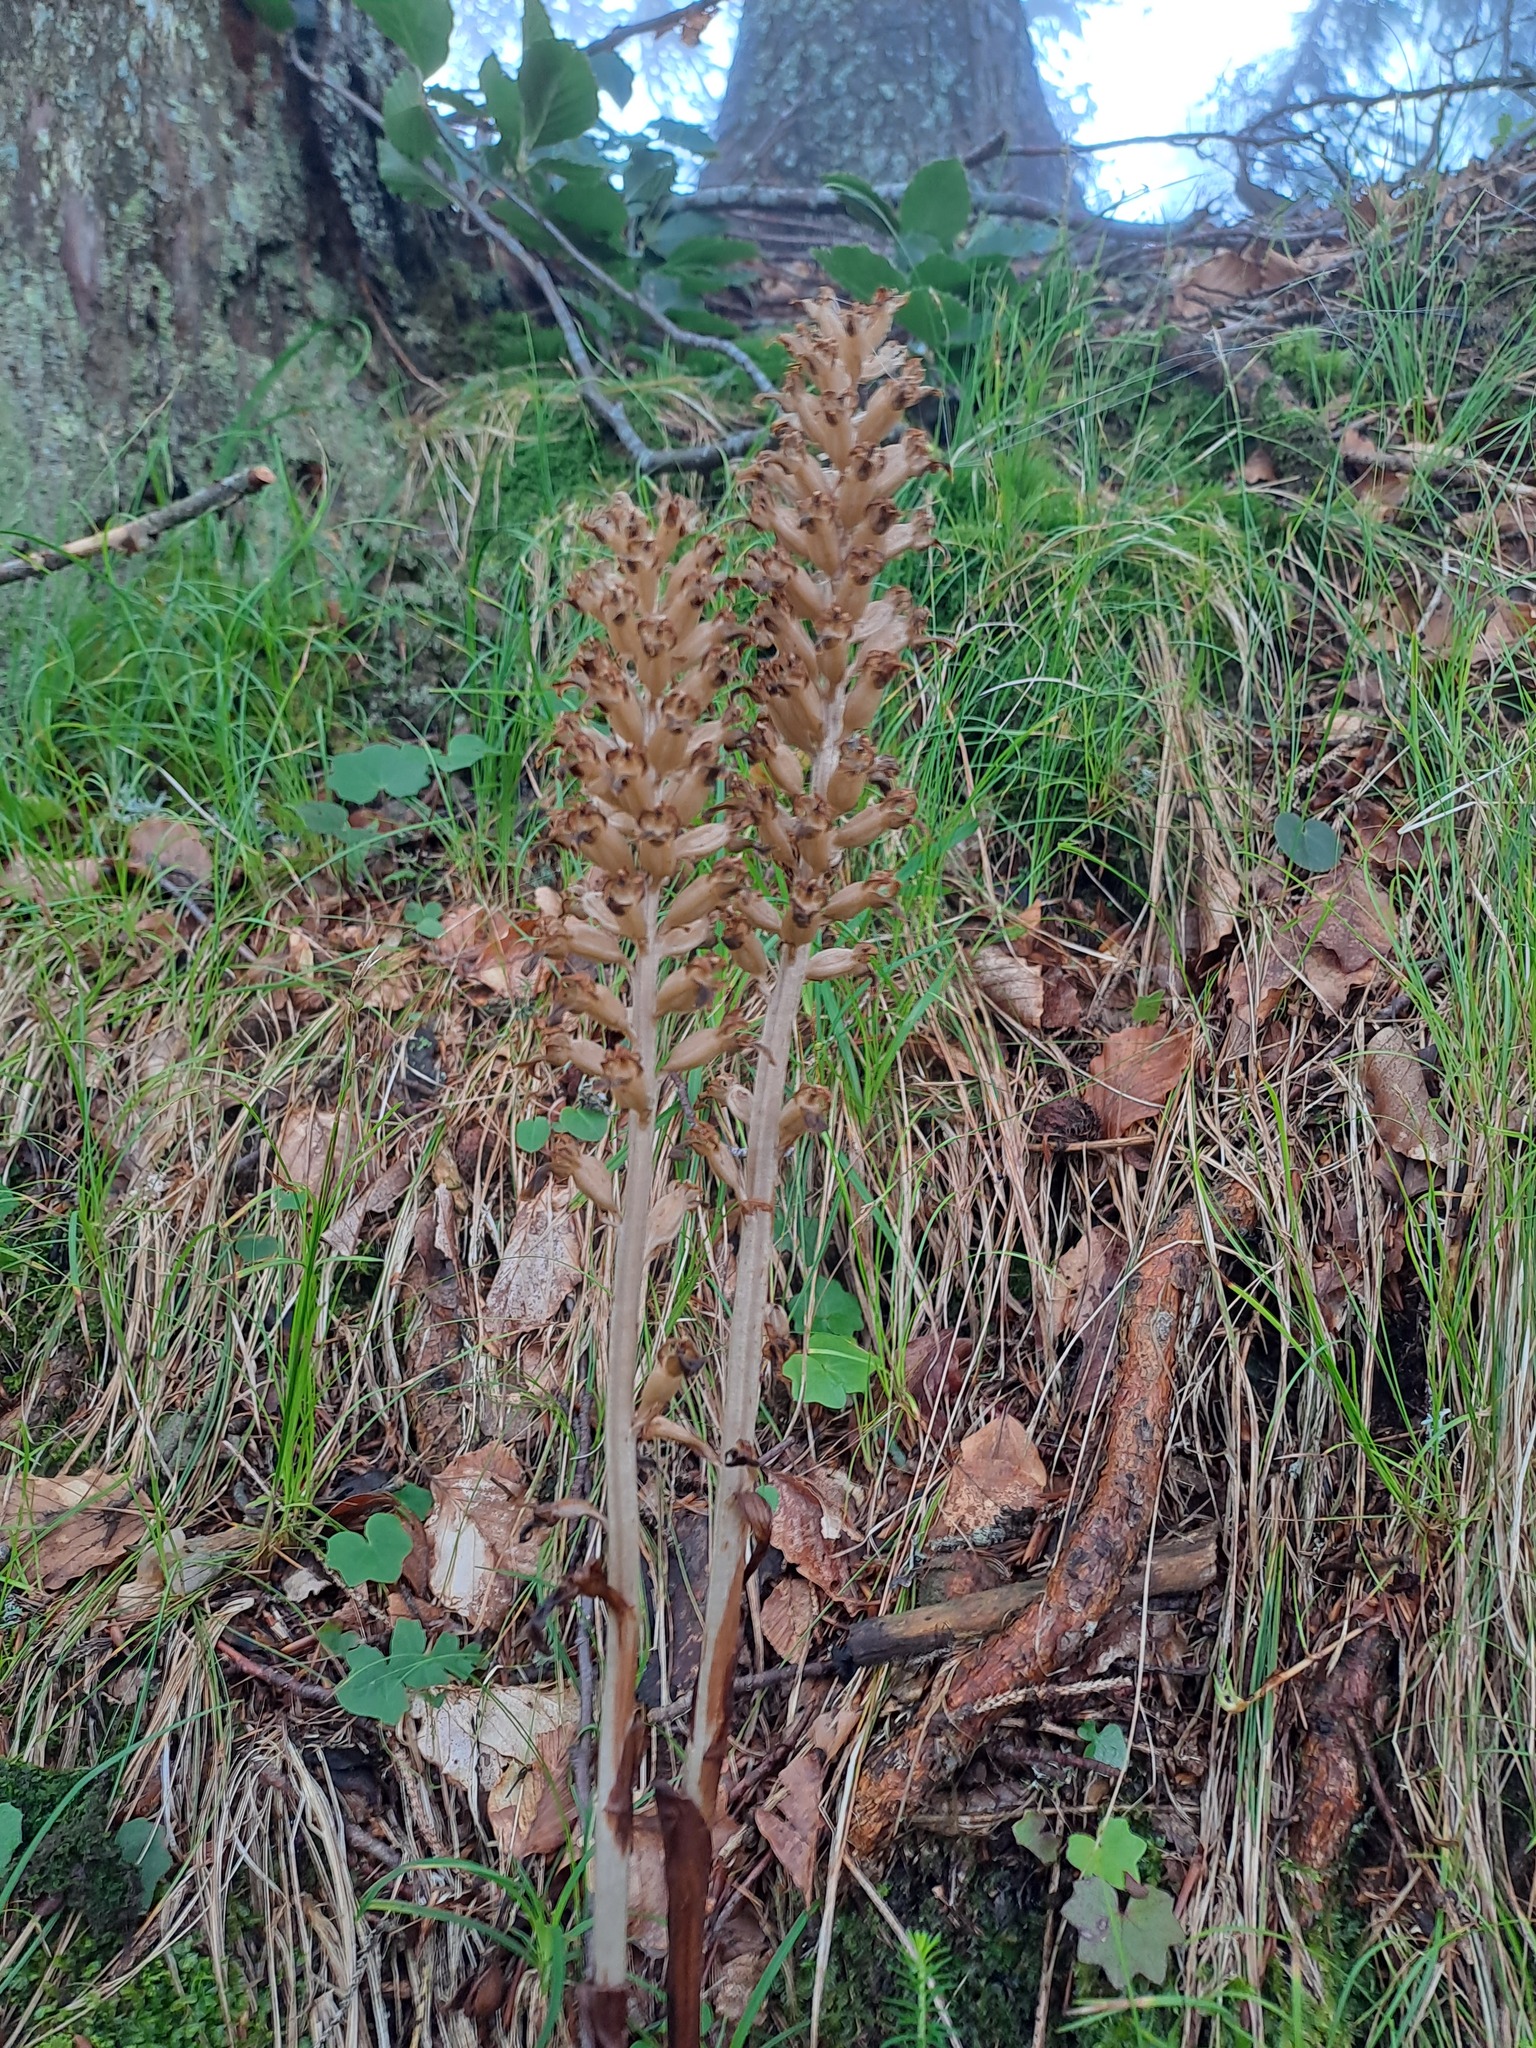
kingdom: Plantae
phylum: Tracheophyta
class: Liliopsida
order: Asparagales
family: Orchidaceae
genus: Neottia
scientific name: Neottia nidus-avis
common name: Bird's-nest orchid
